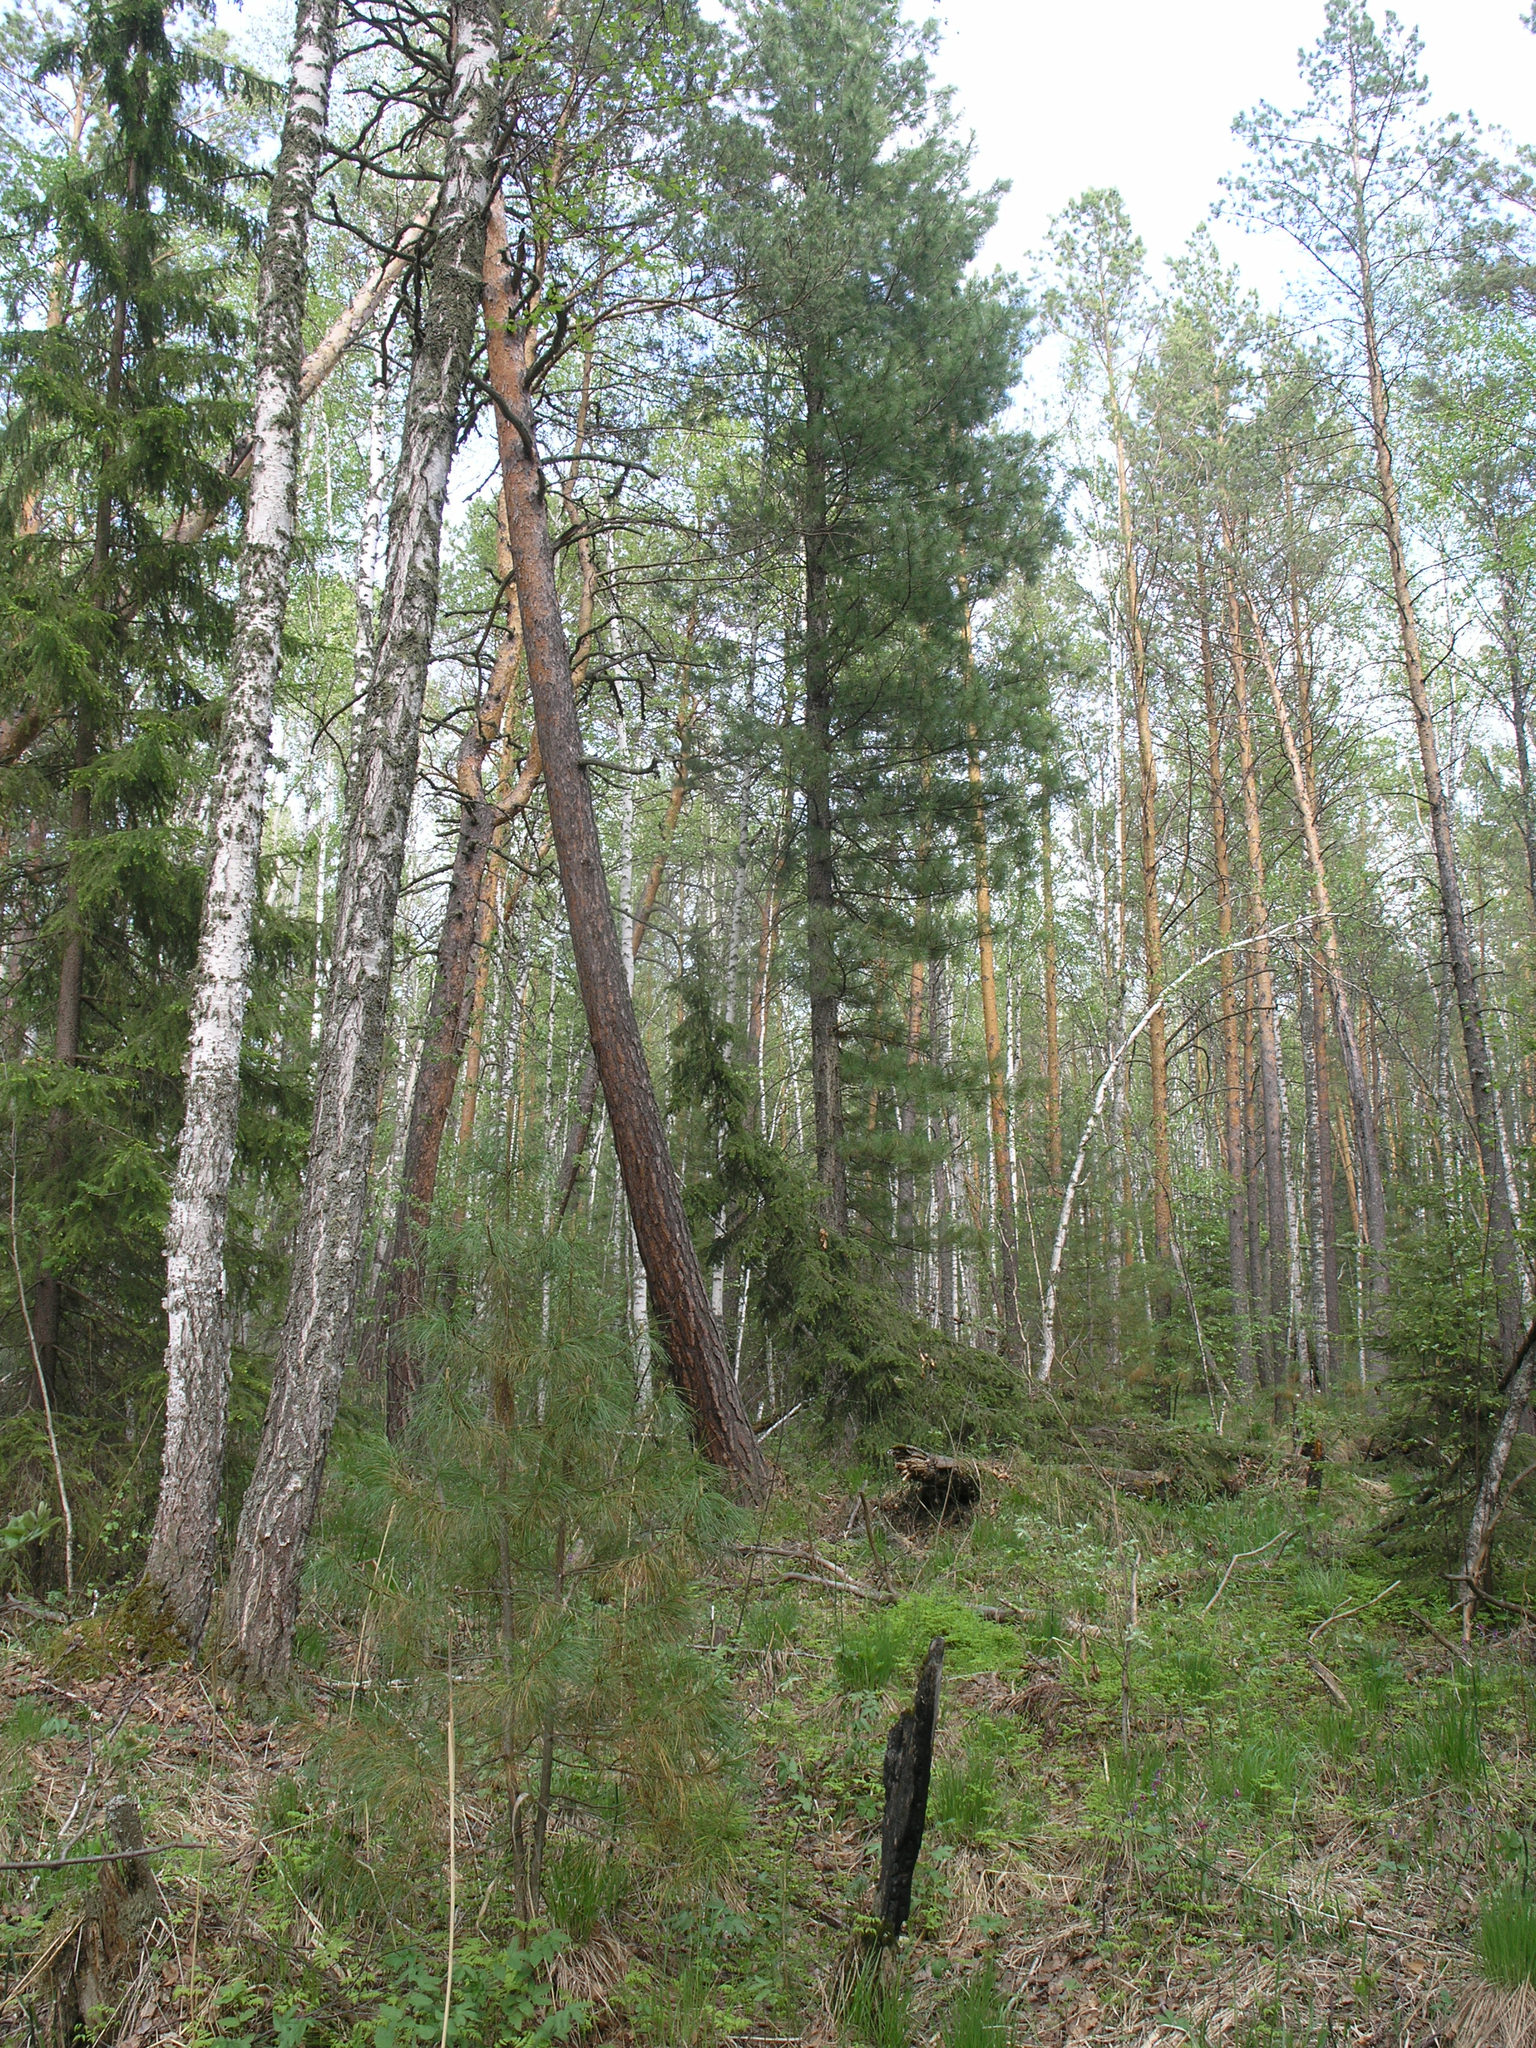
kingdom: Plantae
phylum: Tracheophyta
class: Pinopsida
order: Pinales
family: Pinaceae
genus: Pinus
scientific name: Pinus sibirica
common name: Siberian pine
